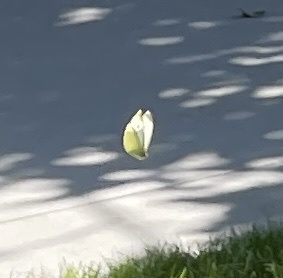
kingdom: Animalia
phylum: Arthropoda
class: Insecta
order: Lepidoptera
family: Pieridae
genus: Pieris
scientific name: Pieris rapae
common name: Small white
